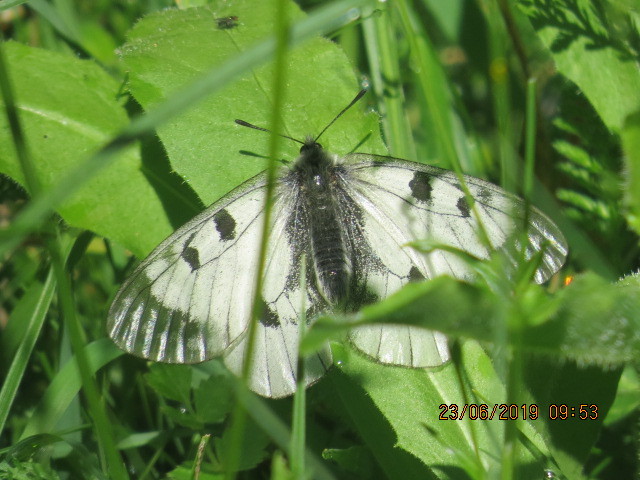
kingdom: Animalia
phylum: Arthropoda
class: Insecta
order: Lepidoptera
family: Papilionidae
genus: Parnassius
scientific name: Parnassius mnemosyne
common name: Clouded apollo
